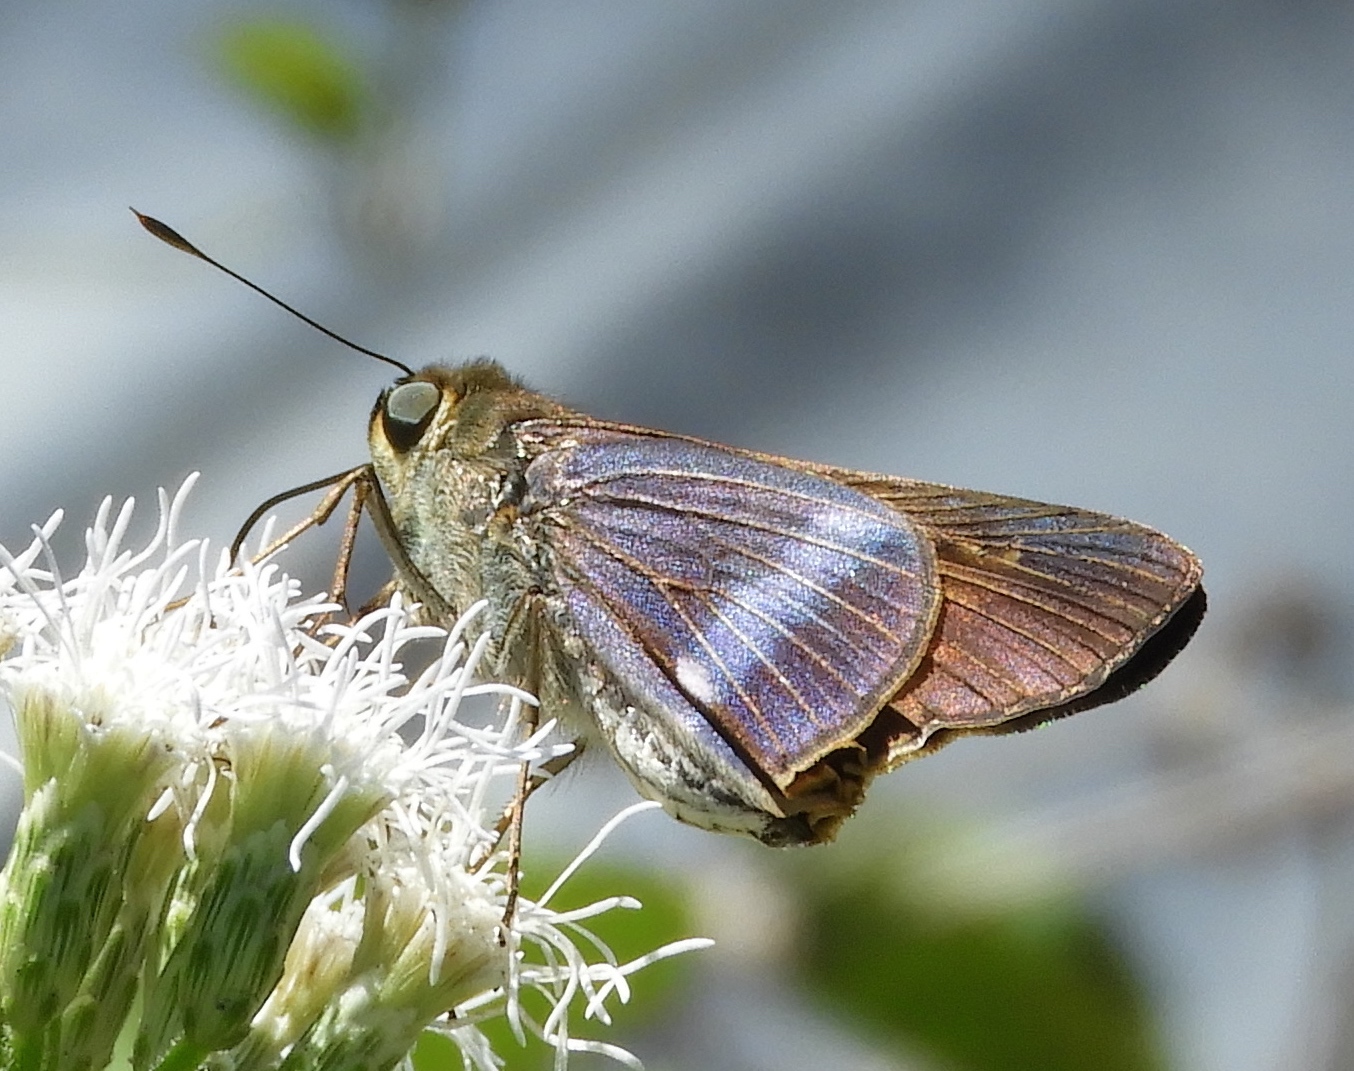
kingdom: Animalia
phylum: Arthropoda
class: Insecta
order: Lepidoptera
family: Hesperiidae
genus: Panoquina
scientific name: Panoquina fusina
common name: Evans' skipper
